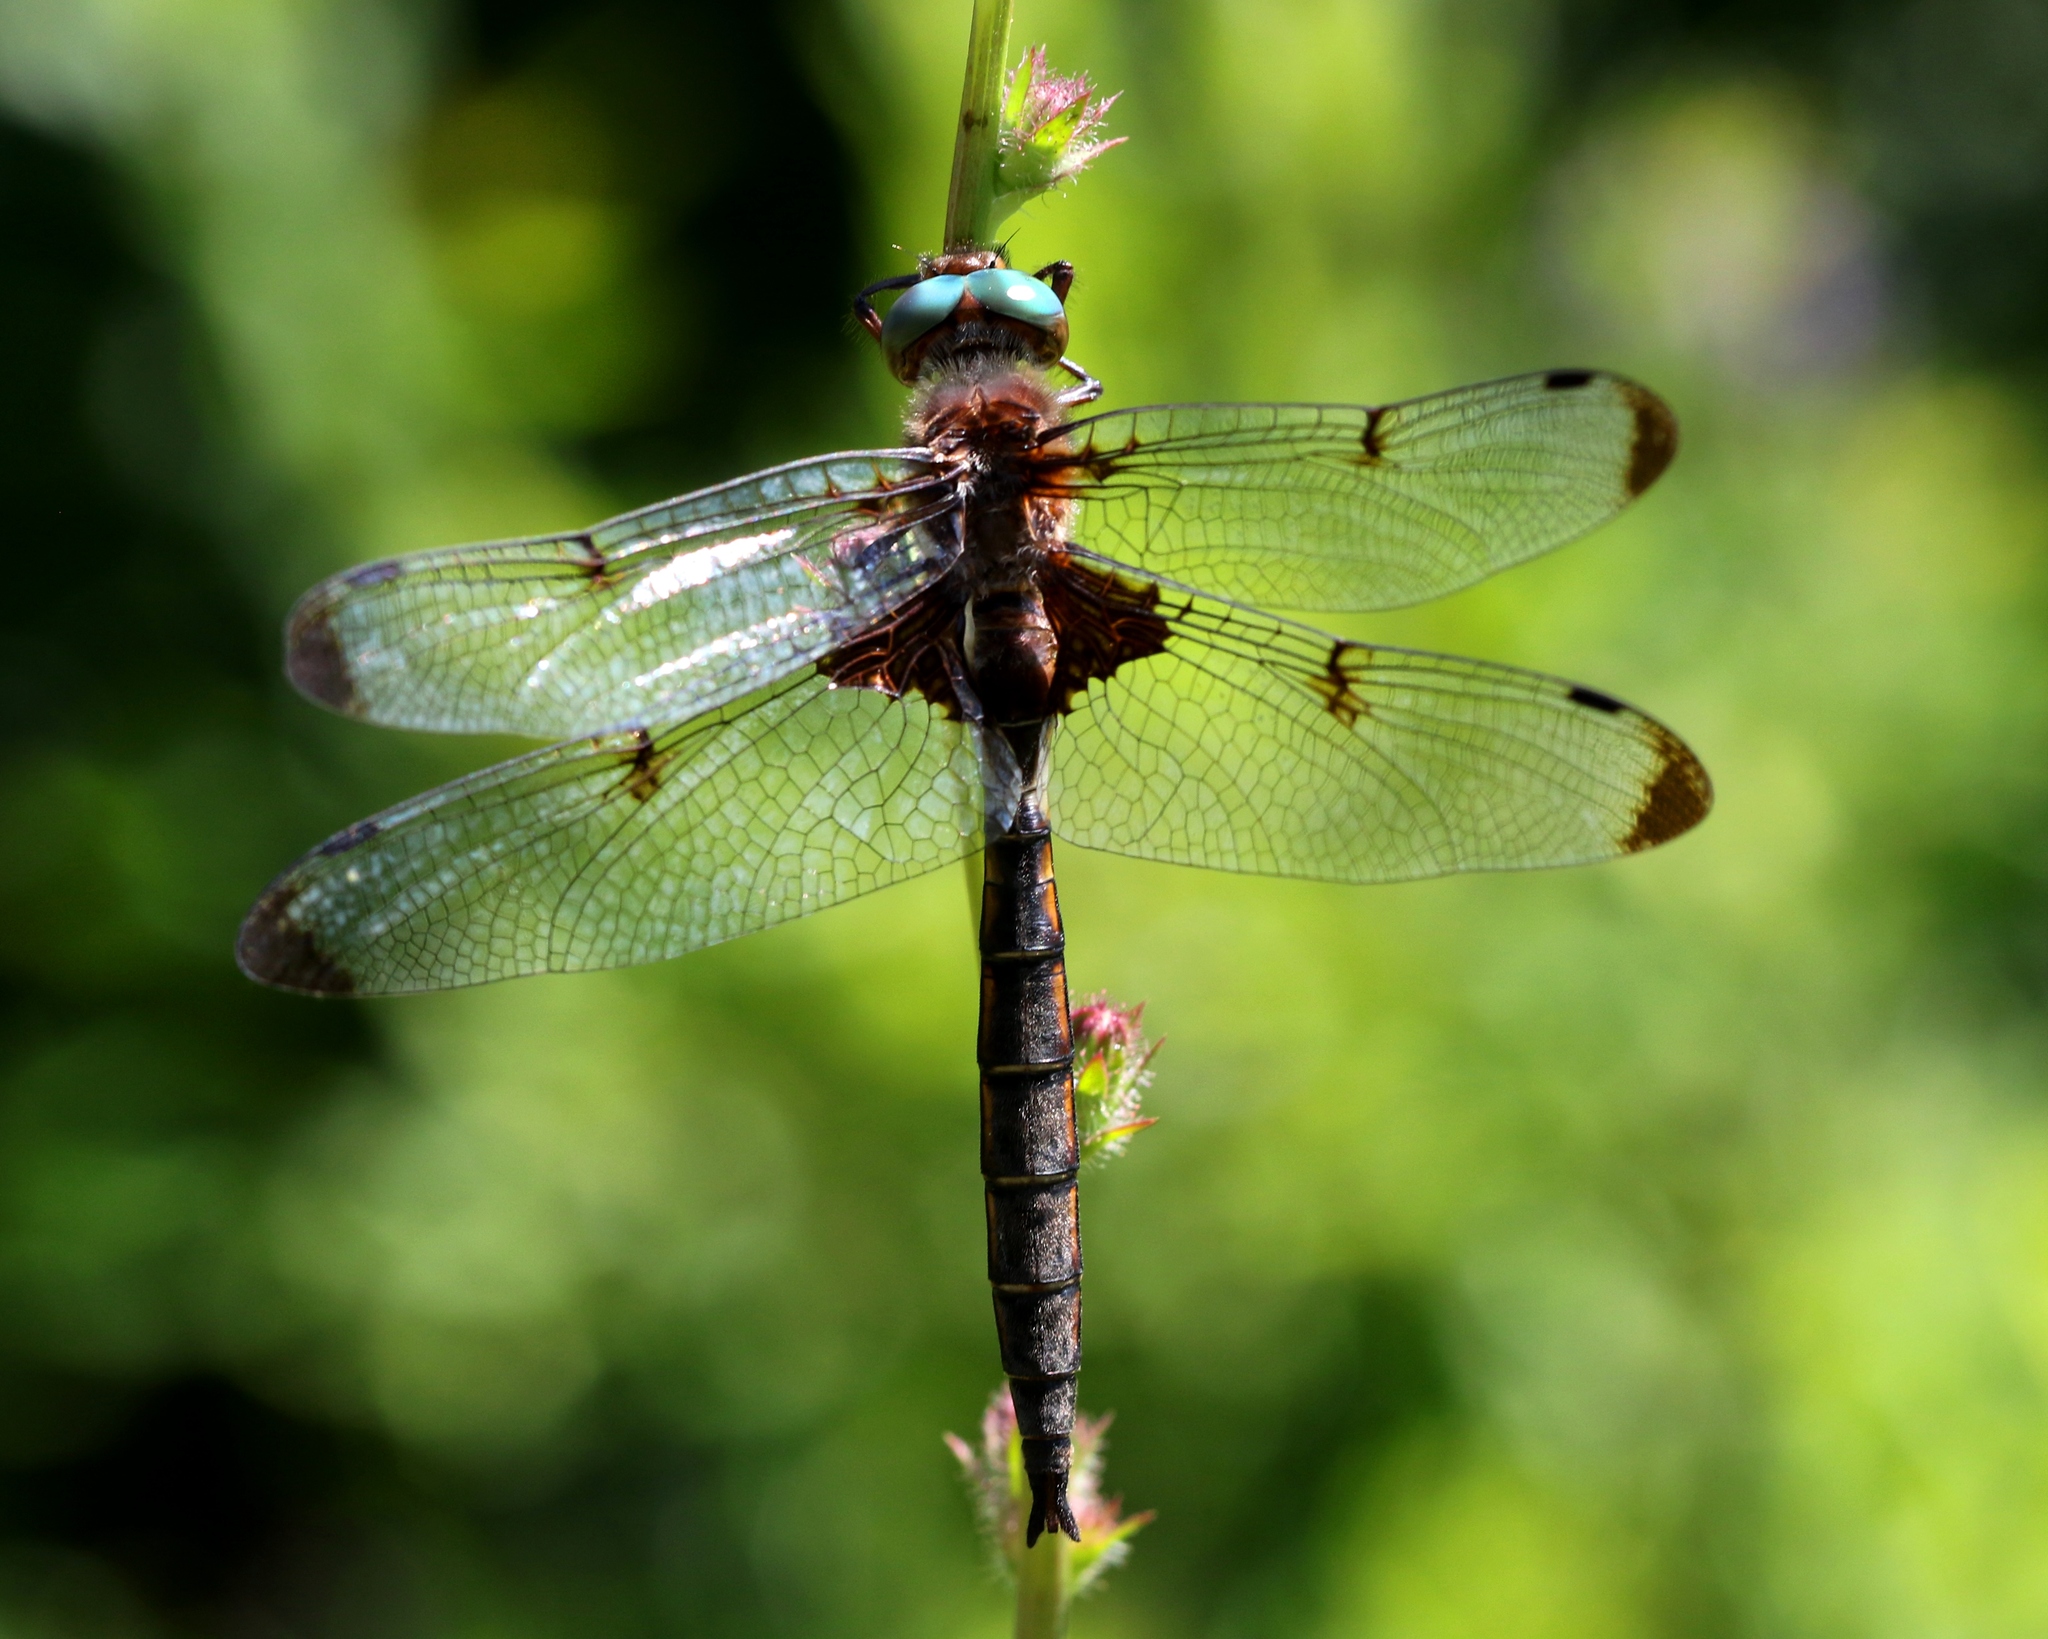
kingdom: Animalia
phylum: Arthropoda
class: Insecta
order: Odonata
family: Corduliidae
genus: Epitheca
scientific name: Epitheca princeps
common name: Prince baskettail
